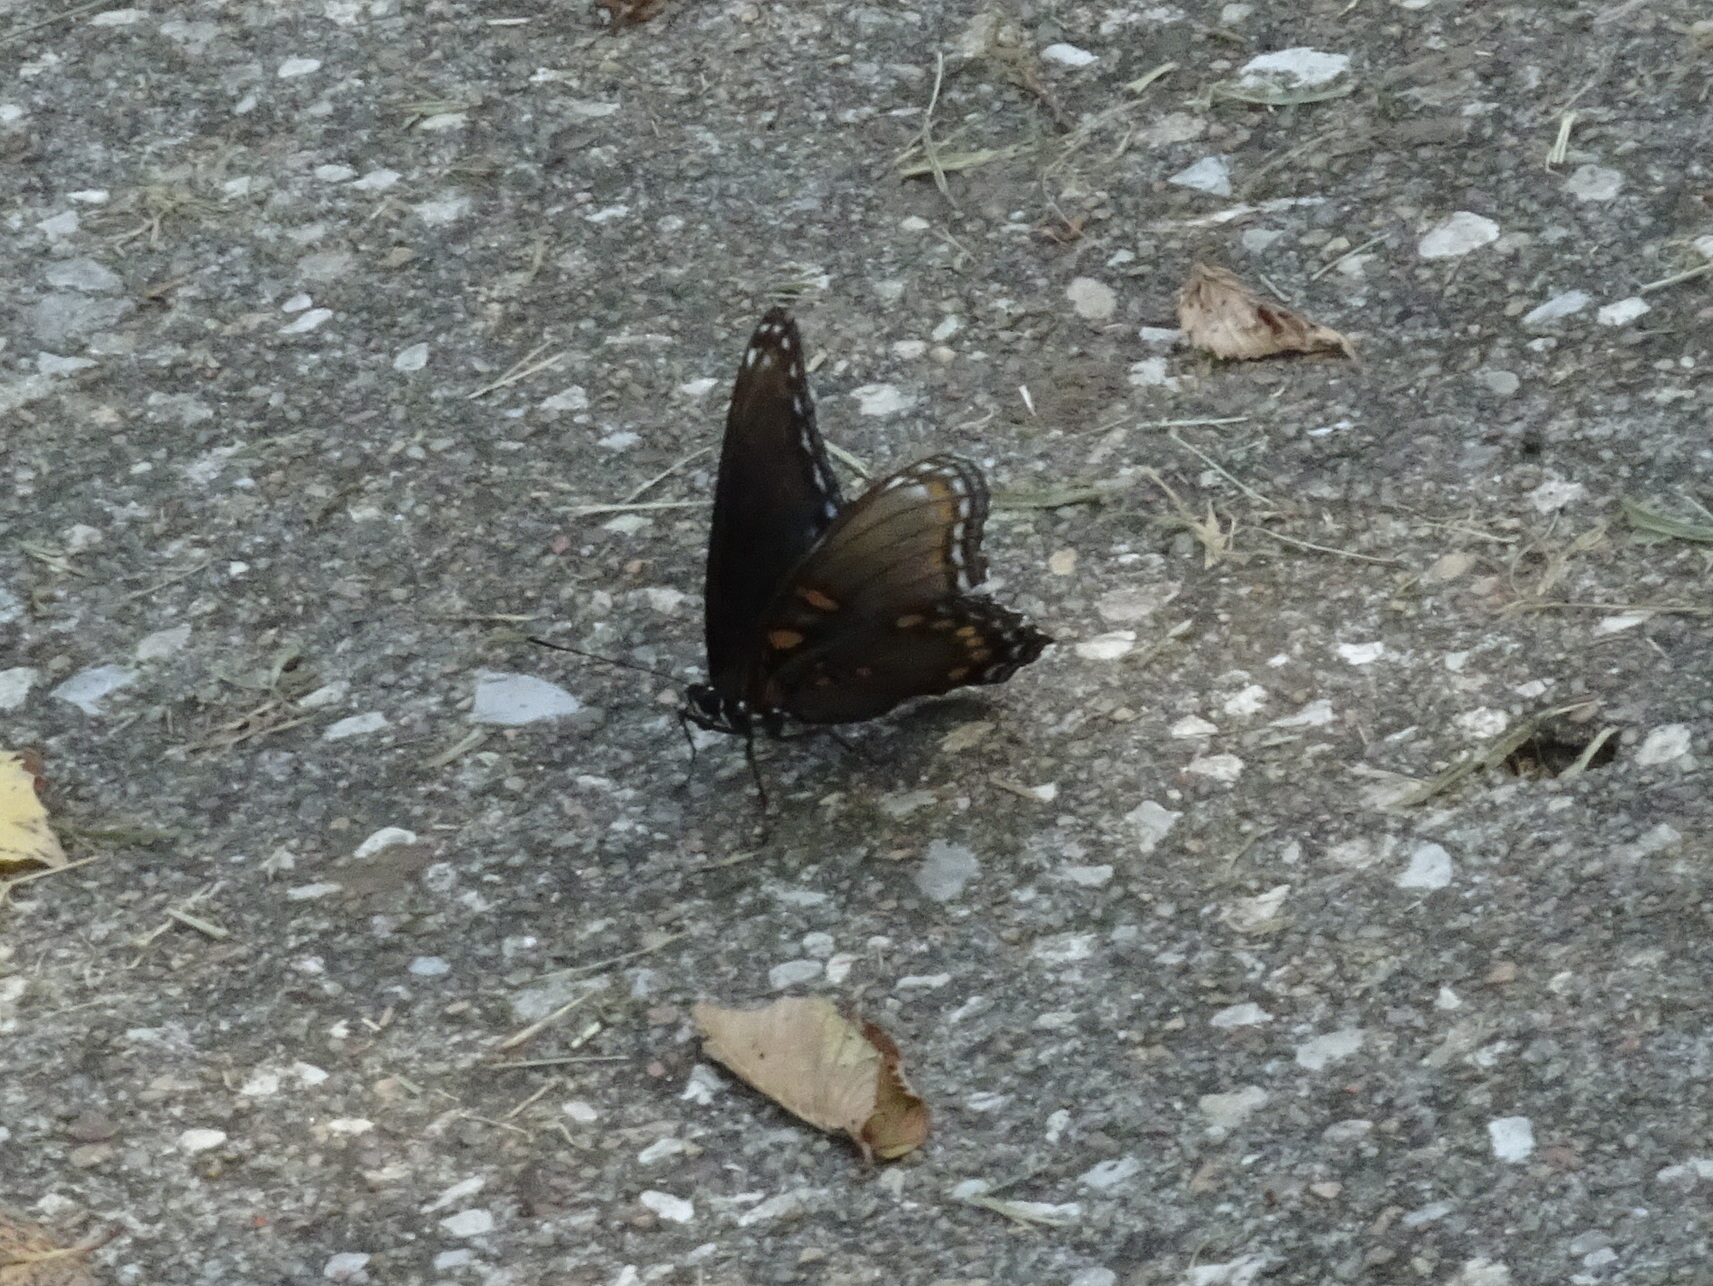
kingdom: Animalia
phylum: Arthropoda
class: Insecta
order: Lepidoptera
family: Nymphalidae
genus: Limenitis
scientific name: Limenitis arthemis
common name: Red-spotted admiral
